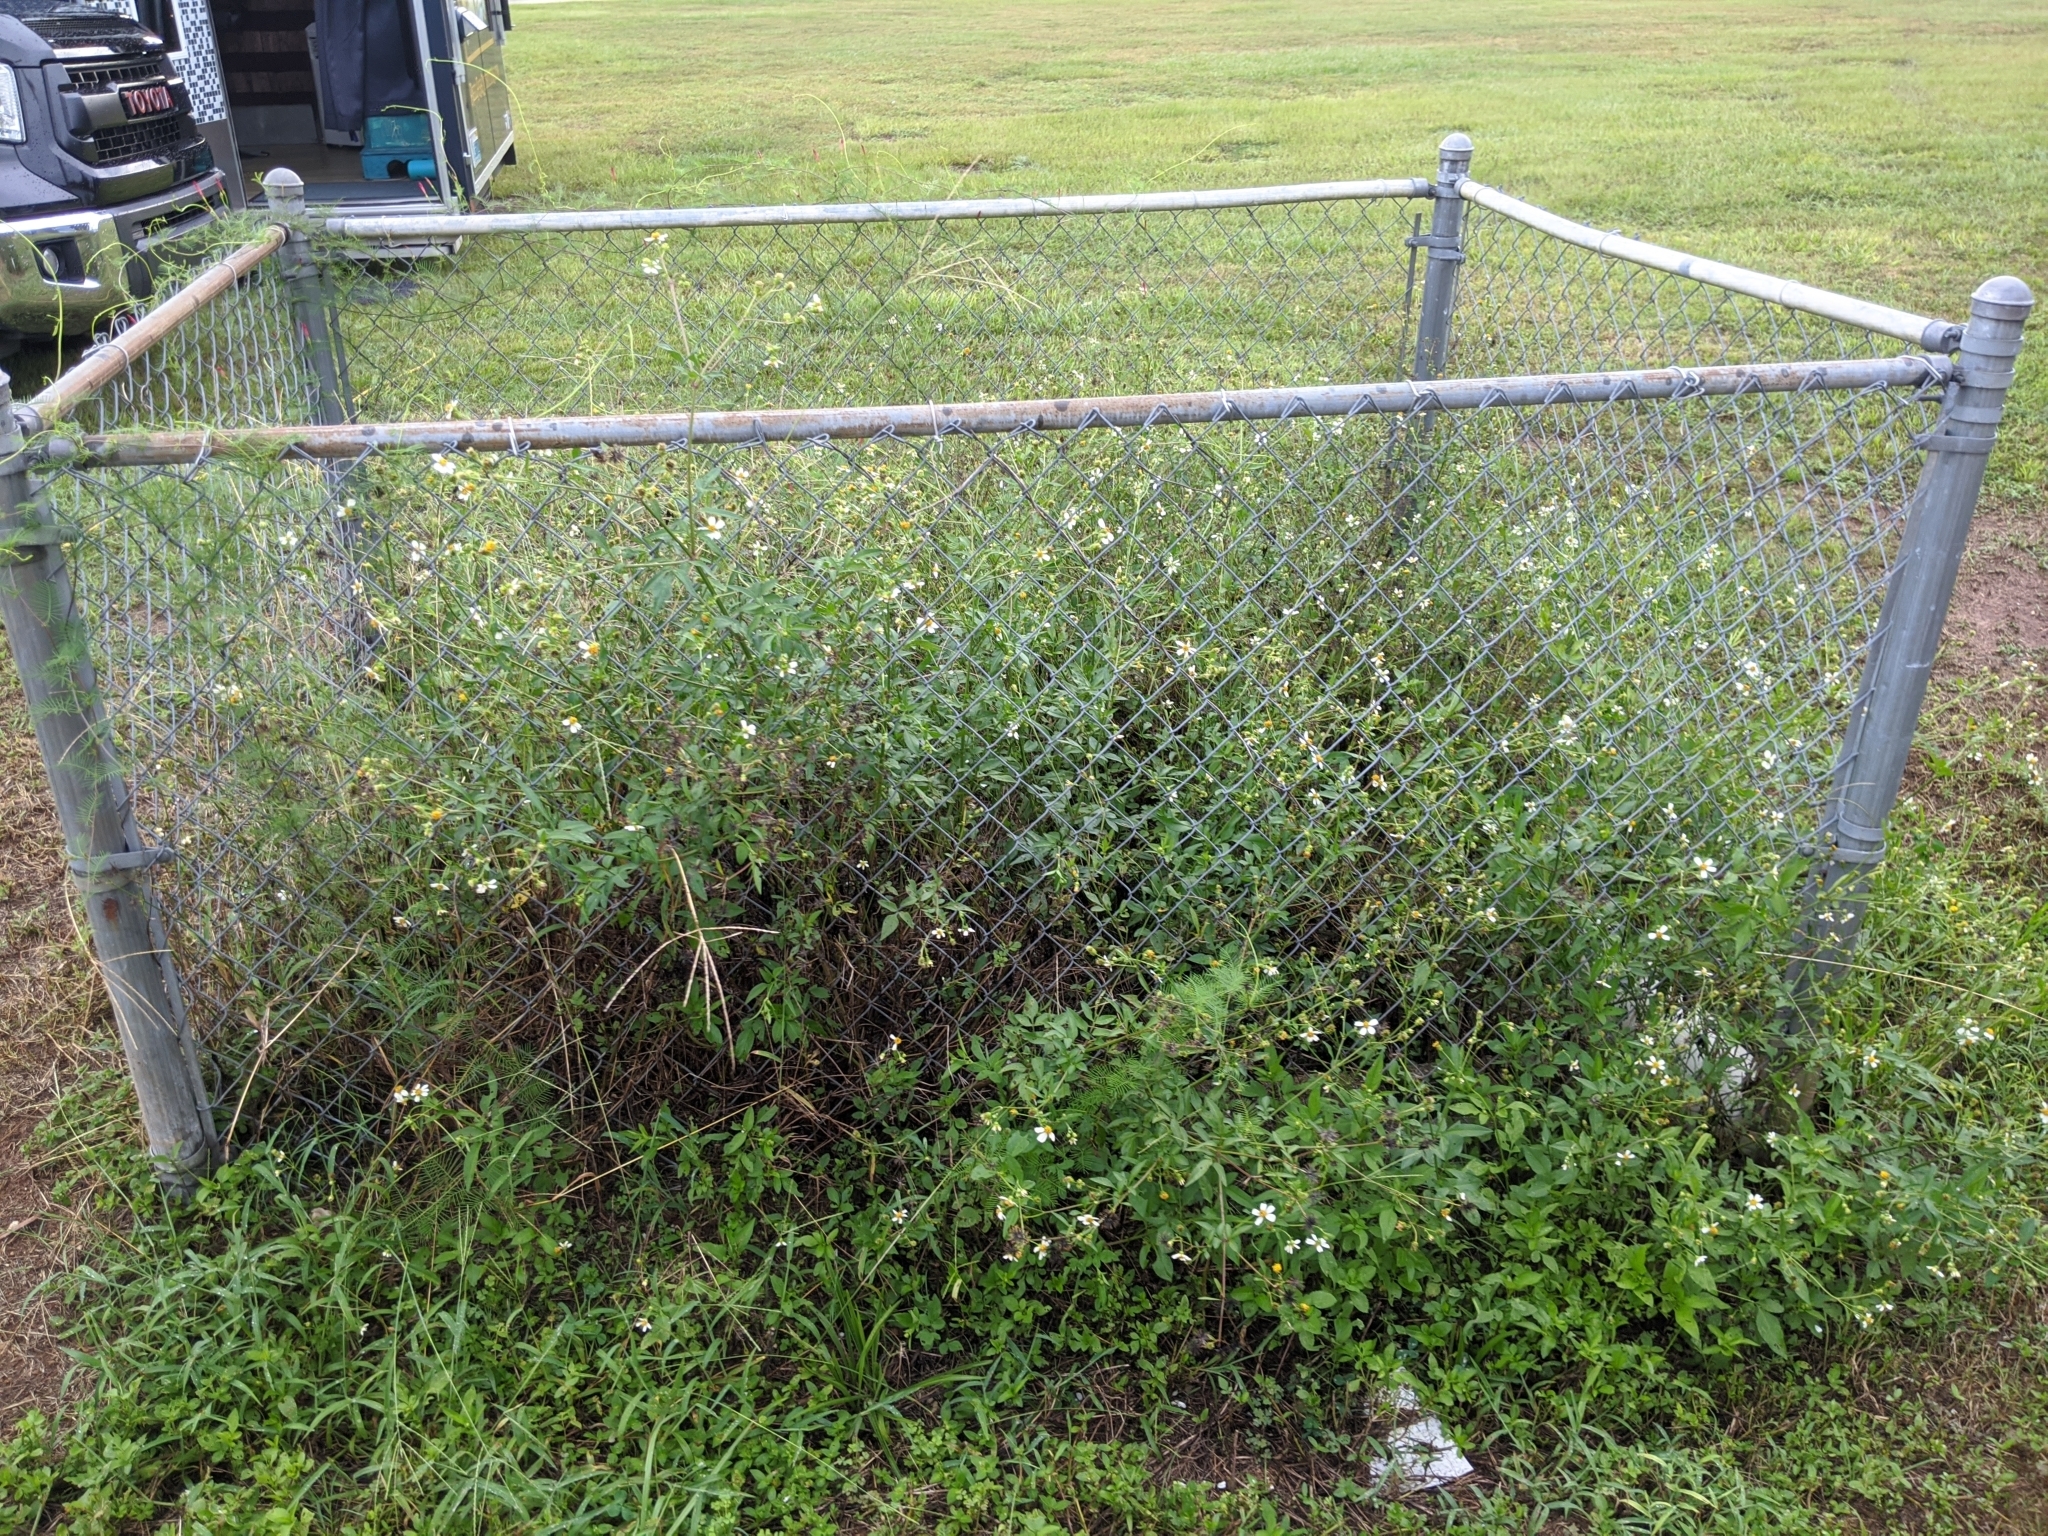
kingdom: Plantae
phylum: Tracheophyta
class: Magnoliopsida
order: Asterales
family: Asteraceae
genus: Bidens
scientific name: Bidens alba
